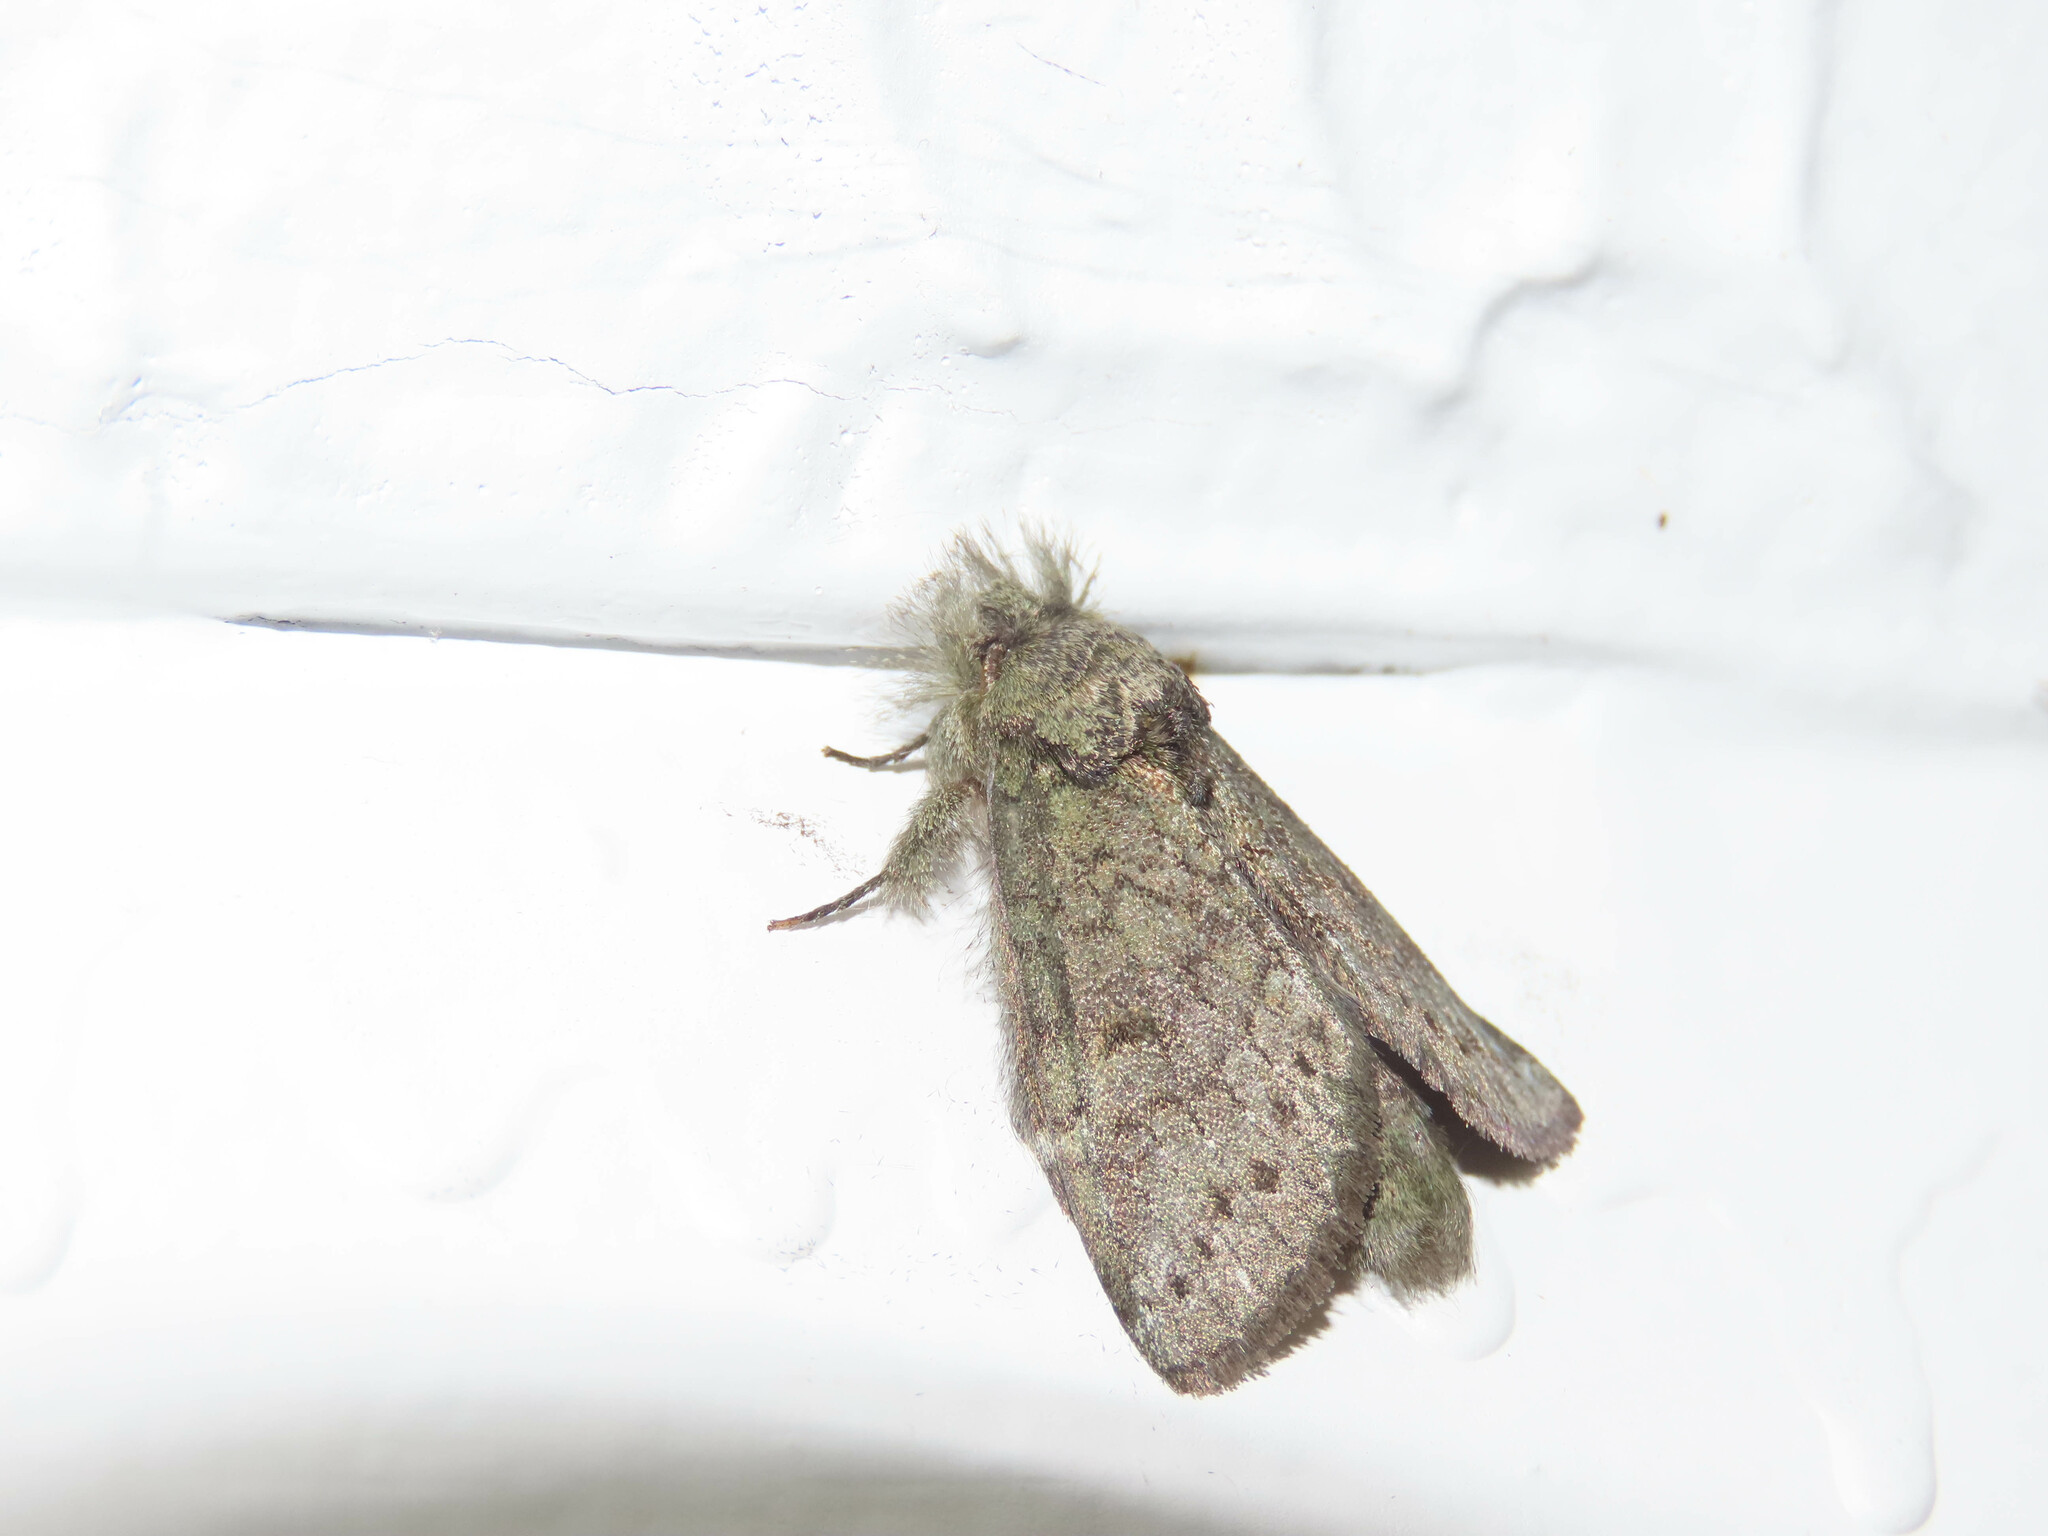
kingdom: Animalia
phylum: Arthropoda
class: Insecta
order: Lepidoptera
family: Notodontidae
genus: Disphragis
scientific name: Disphragis Cecrita guttivitta
